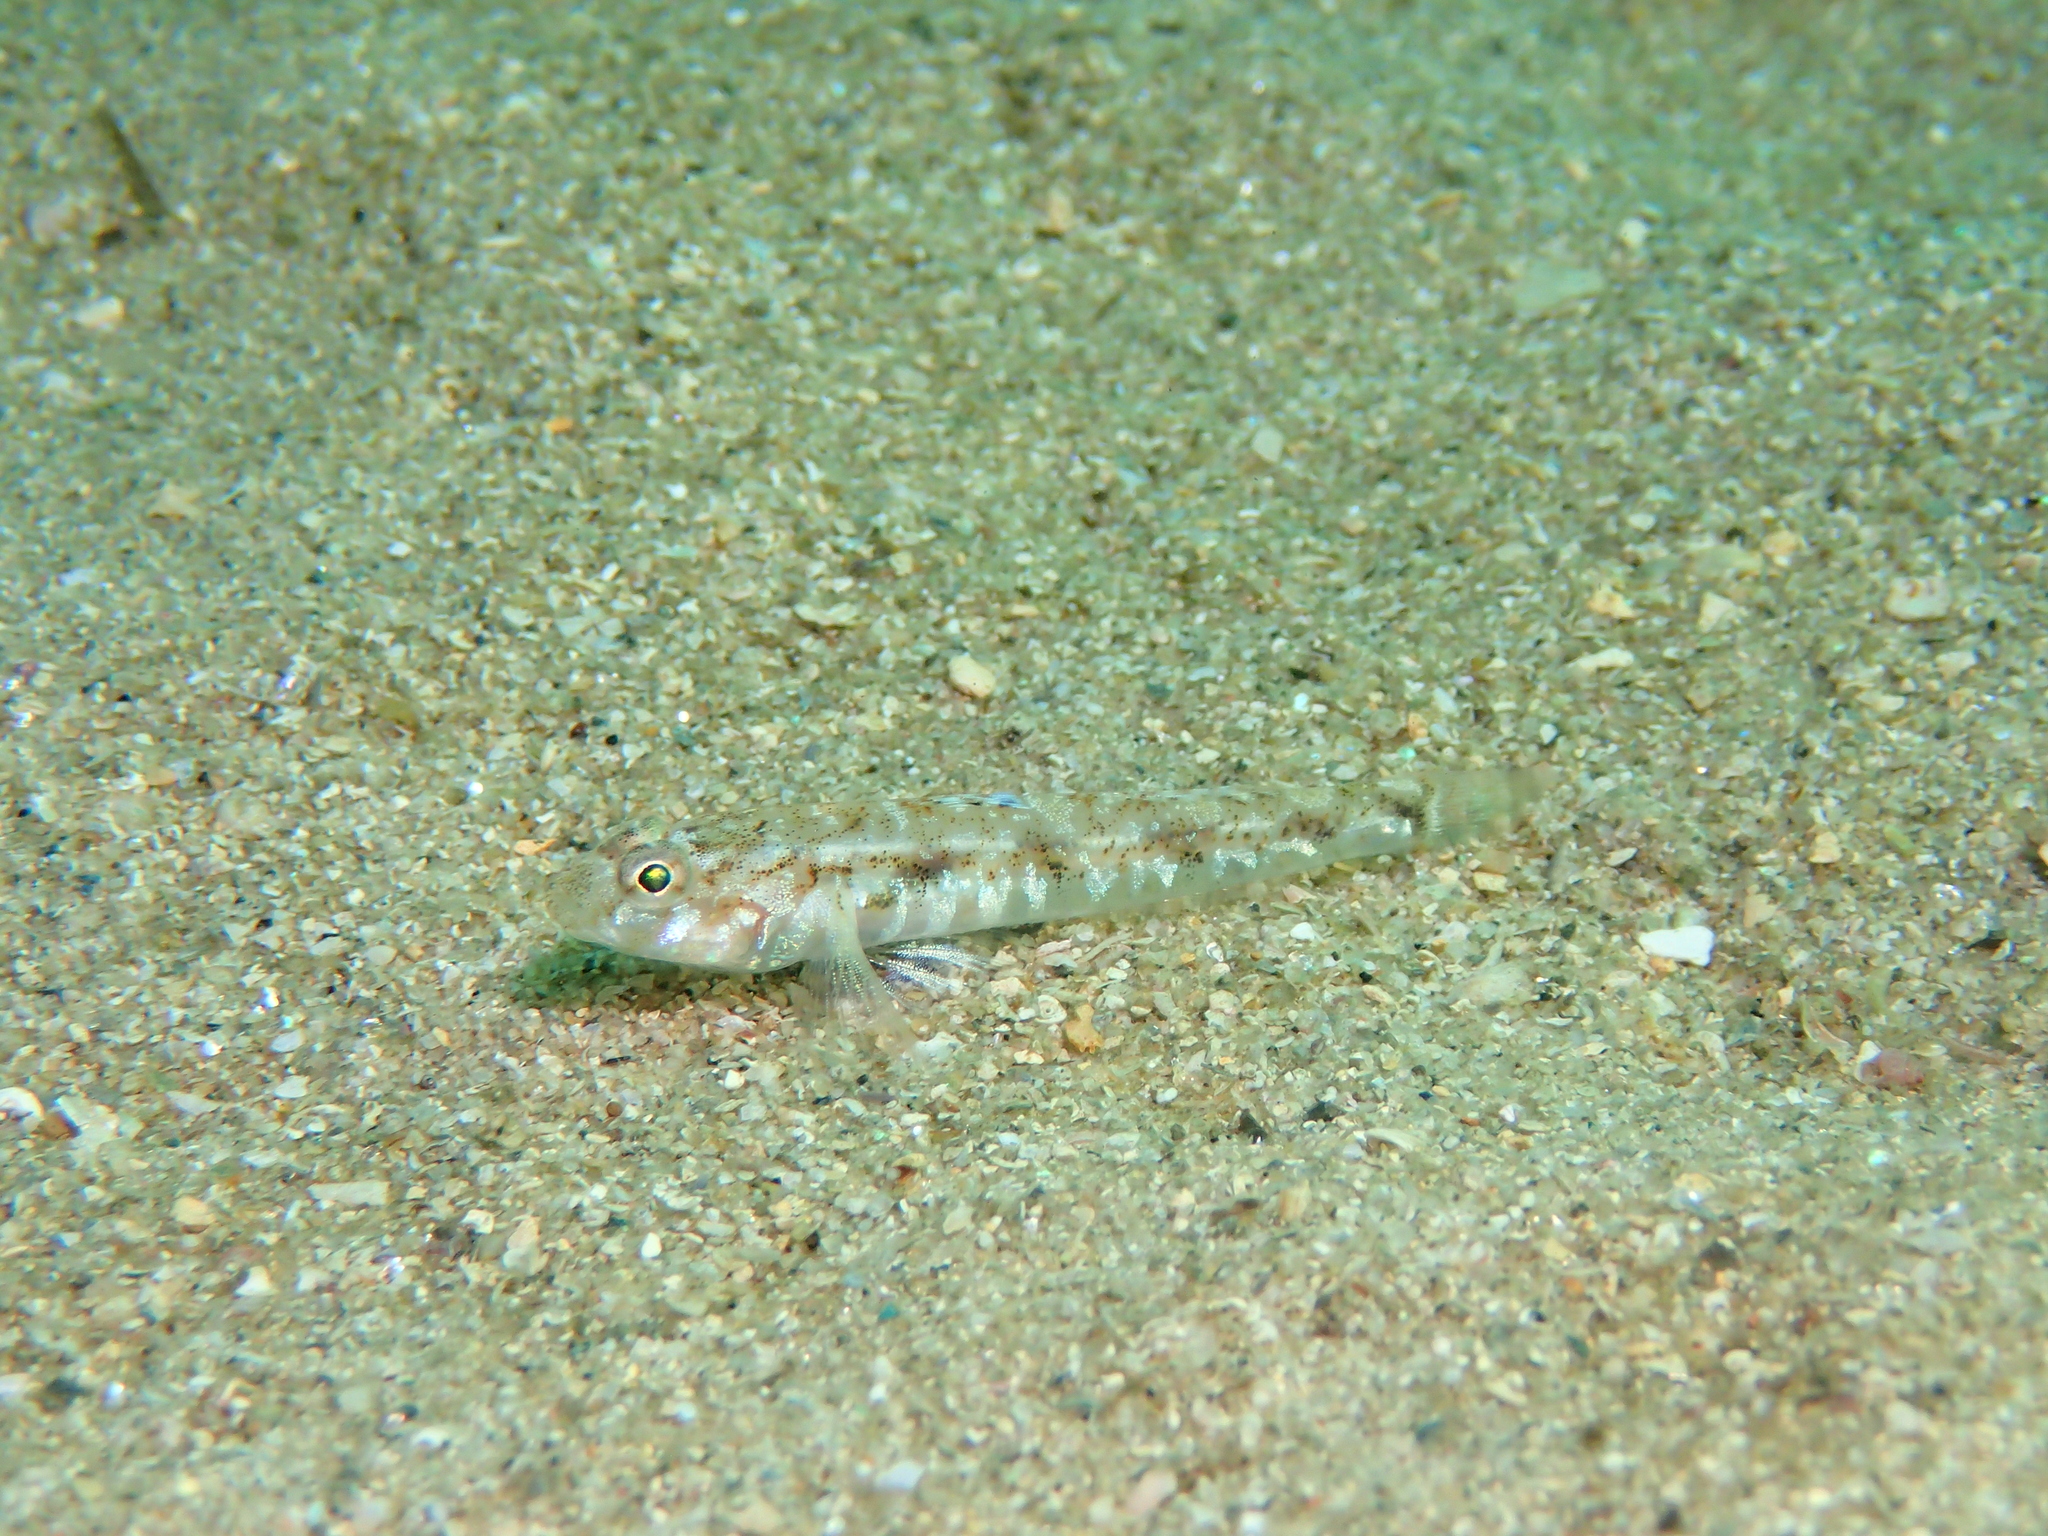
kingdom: Animalia
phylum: Chordata
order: Perciformes
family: Gobiidae
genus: Pomatoschistus
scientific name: Pomatoschistus pictus
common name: Painted goby
